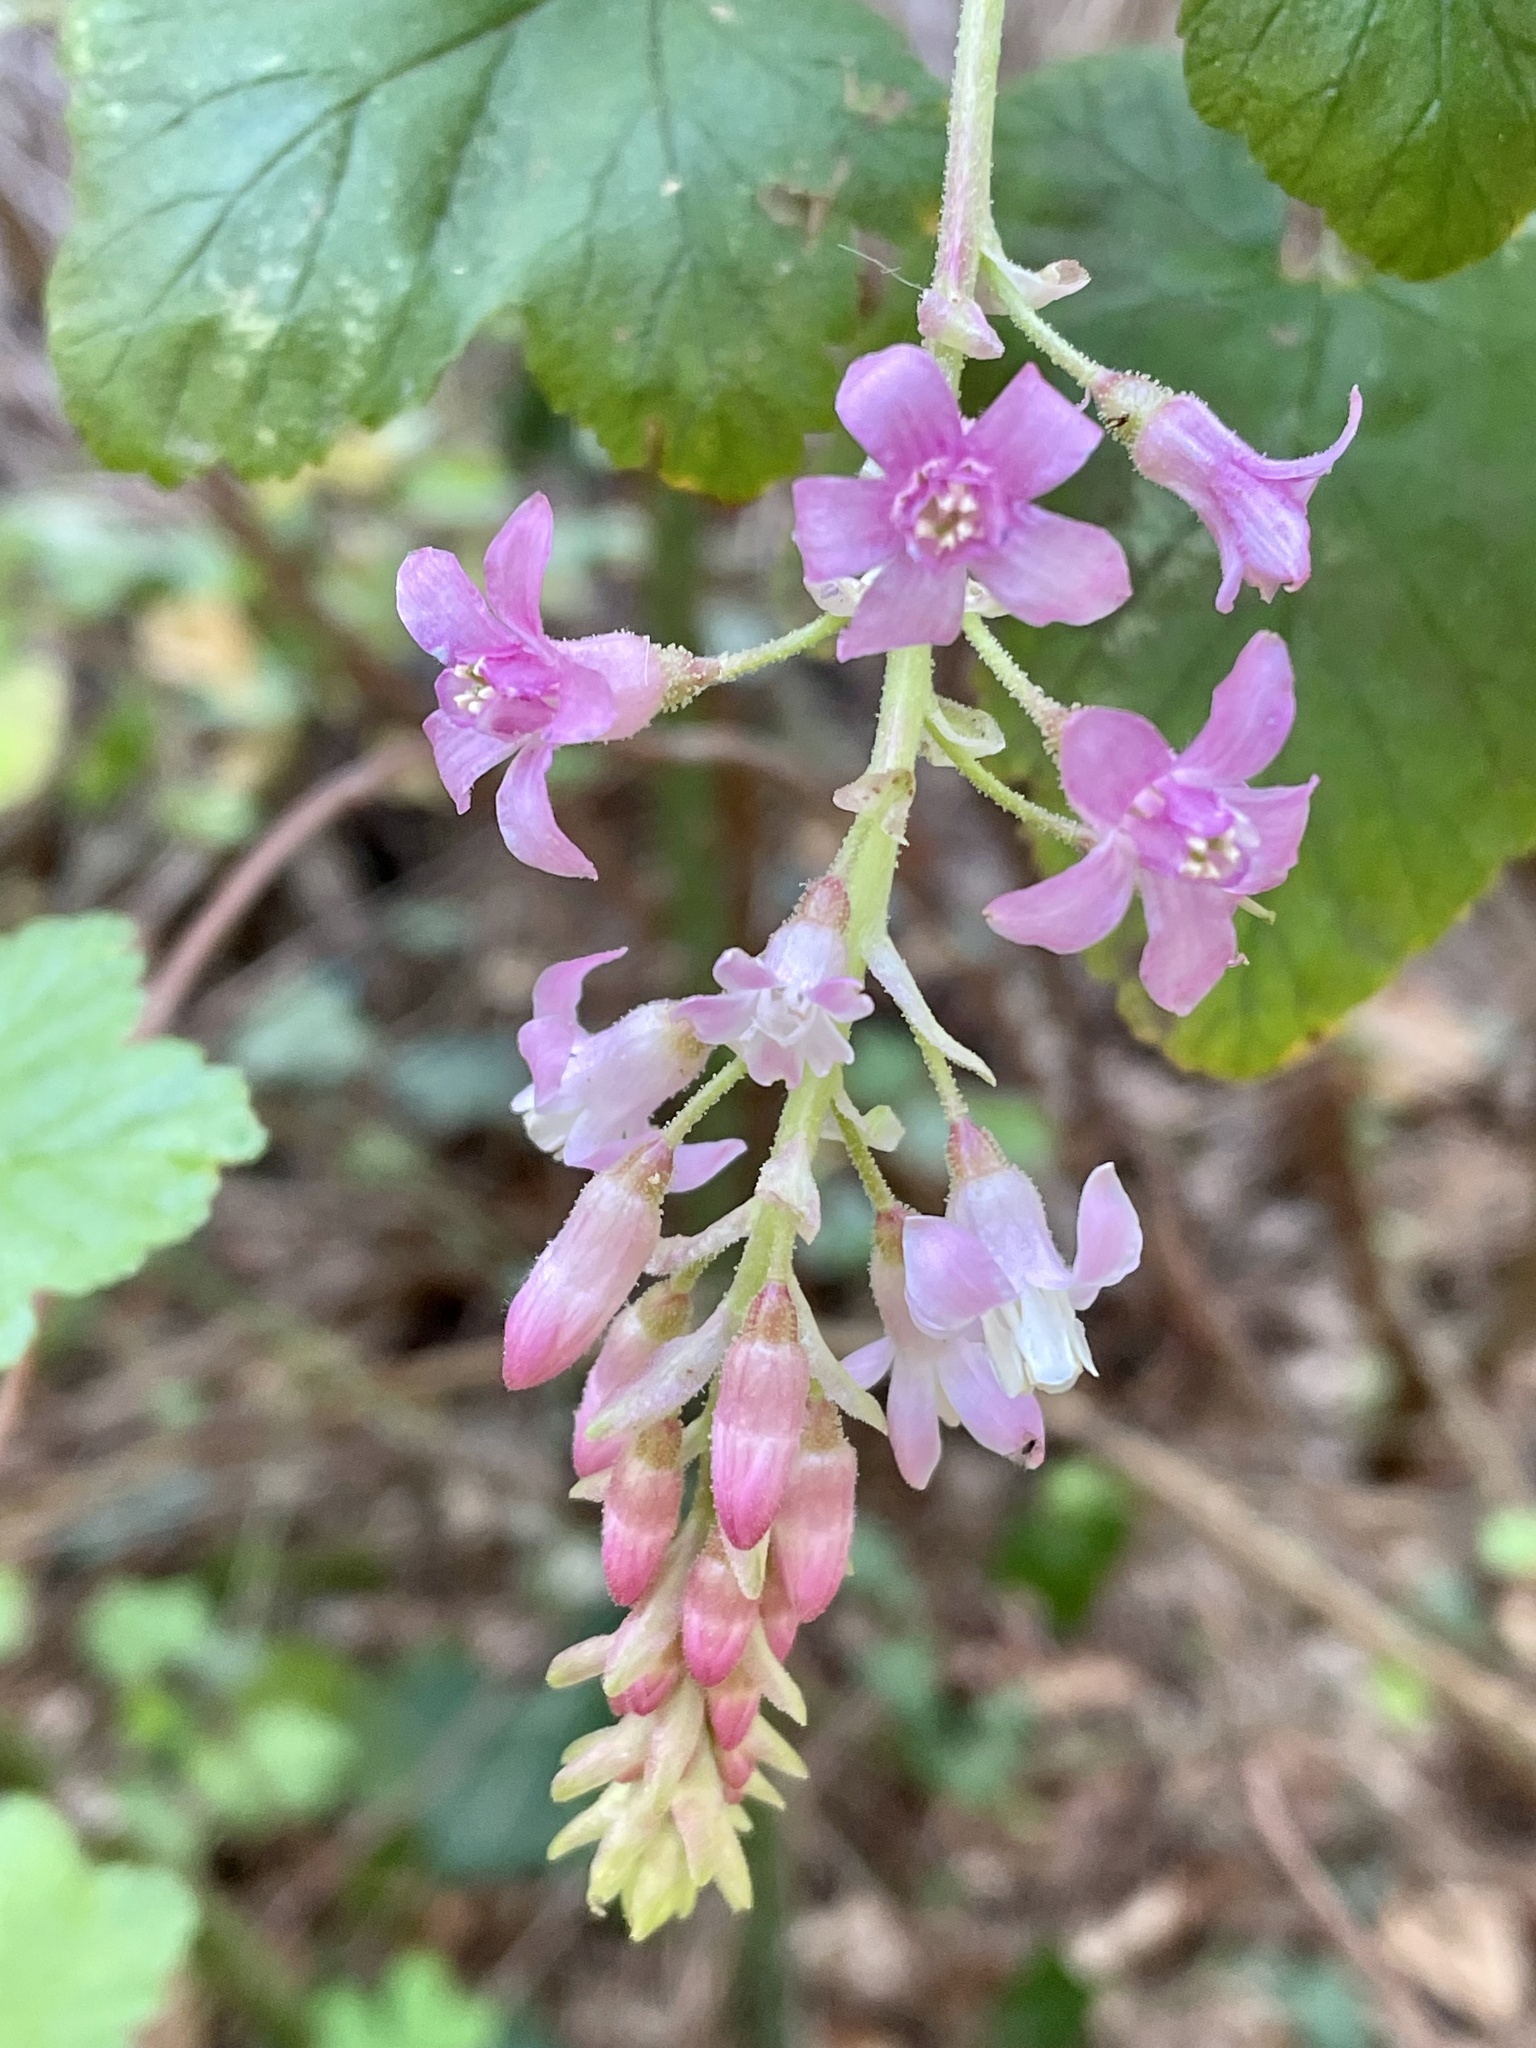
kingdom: Plantae
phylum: Tracheophyta
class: Magnoliopsida
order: Saxifragales
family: Grossulariaceae
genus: Ribes
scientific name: Ribes sanguineum
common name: Flowering currant
